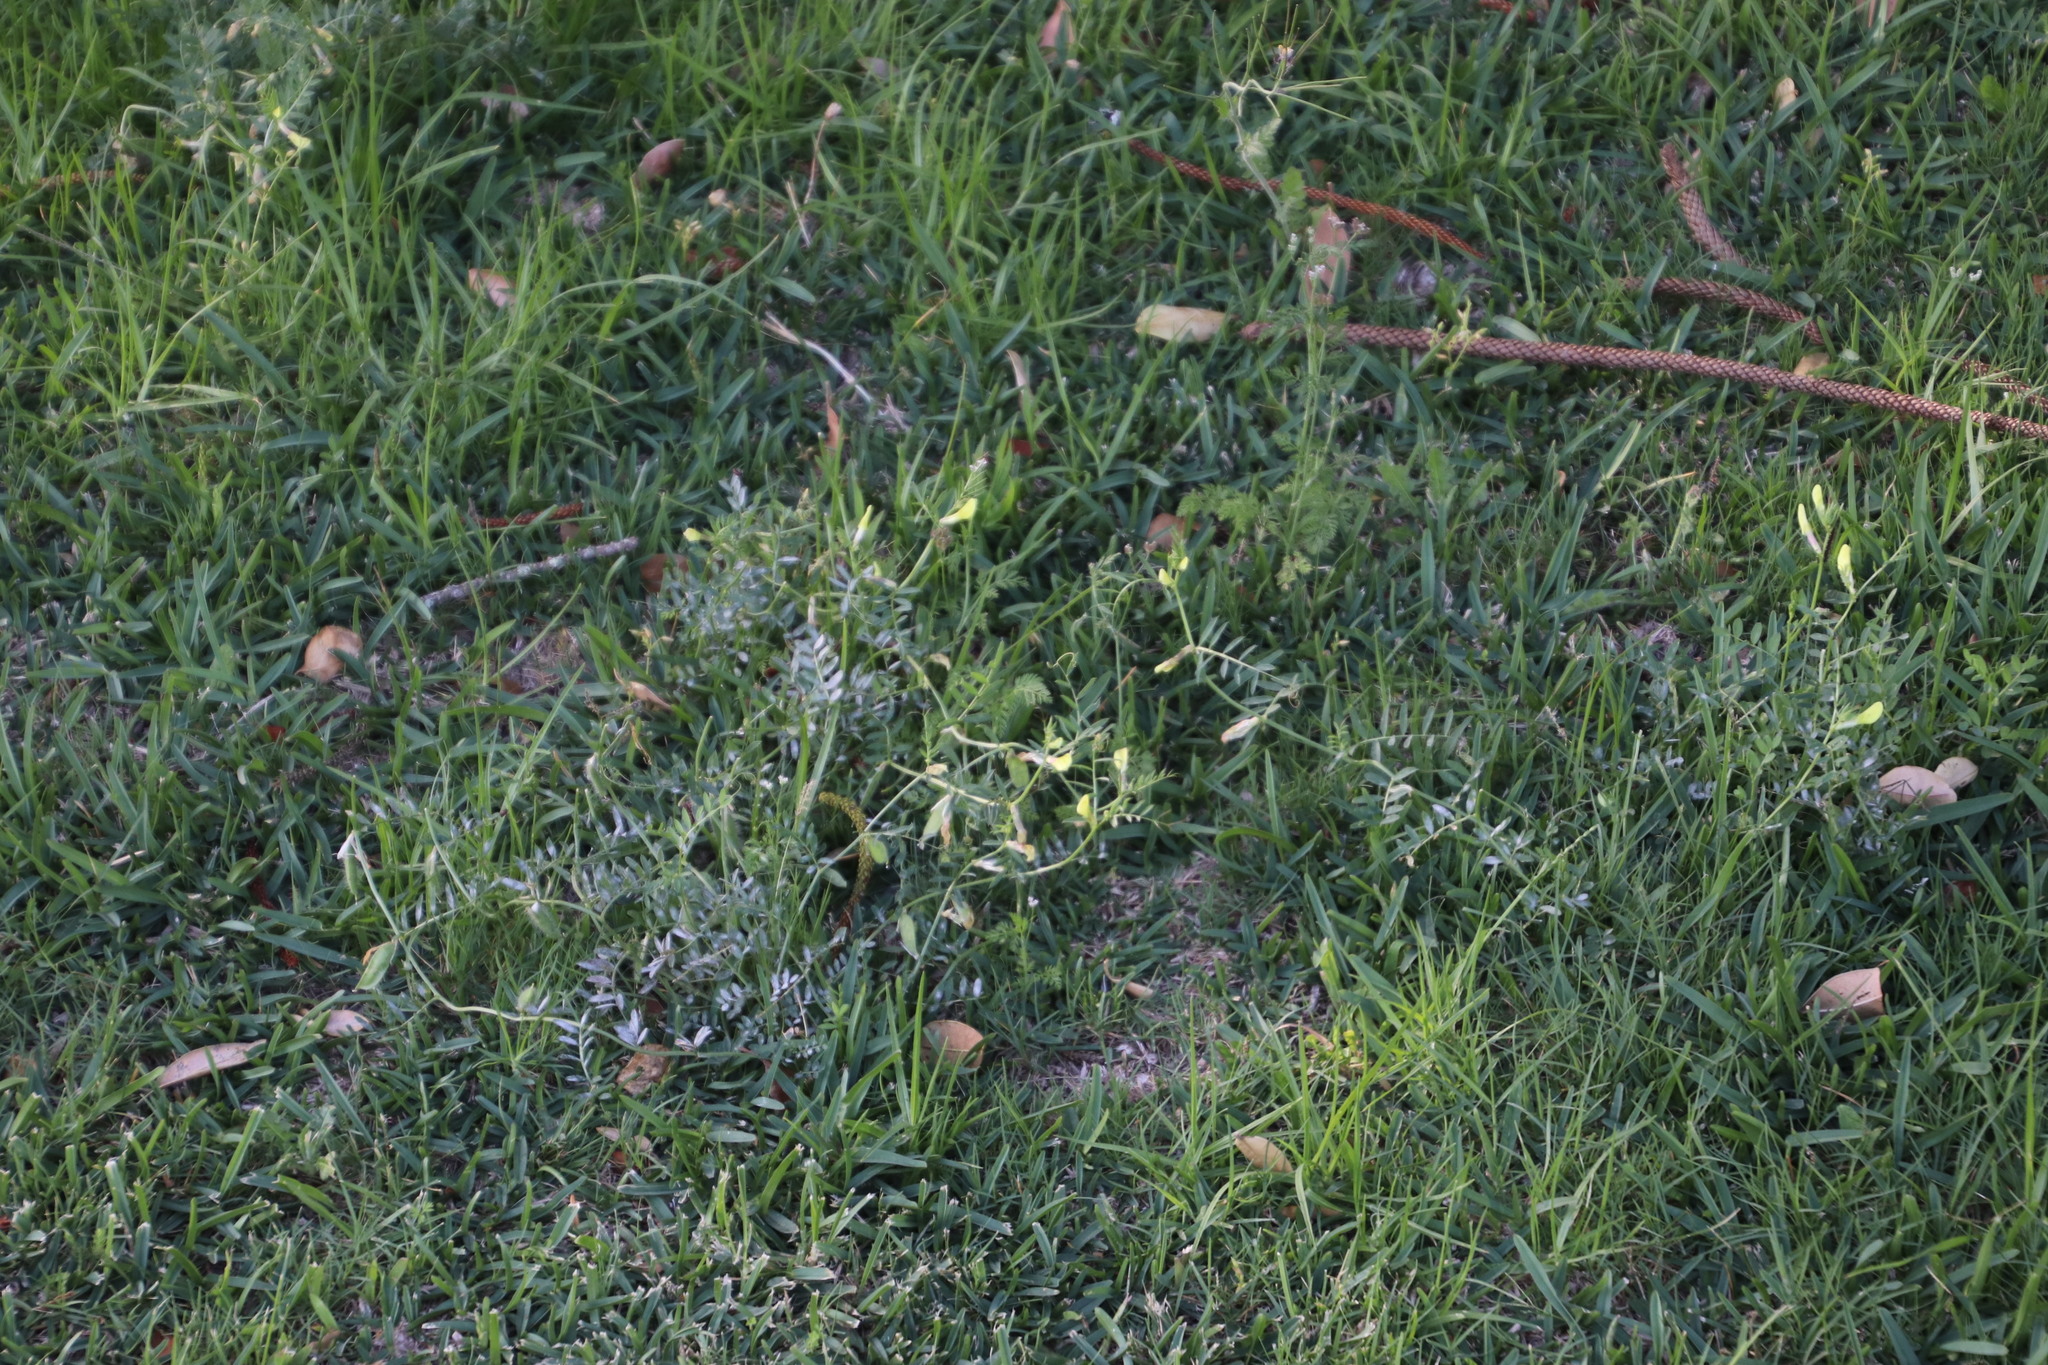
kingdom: Plantae
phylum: Tracheophyta
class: Magnoliopsida
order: Fabales
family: Fabaceae
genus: Vicia
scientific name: Vicia lutea
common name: Smooth yellow vetch
